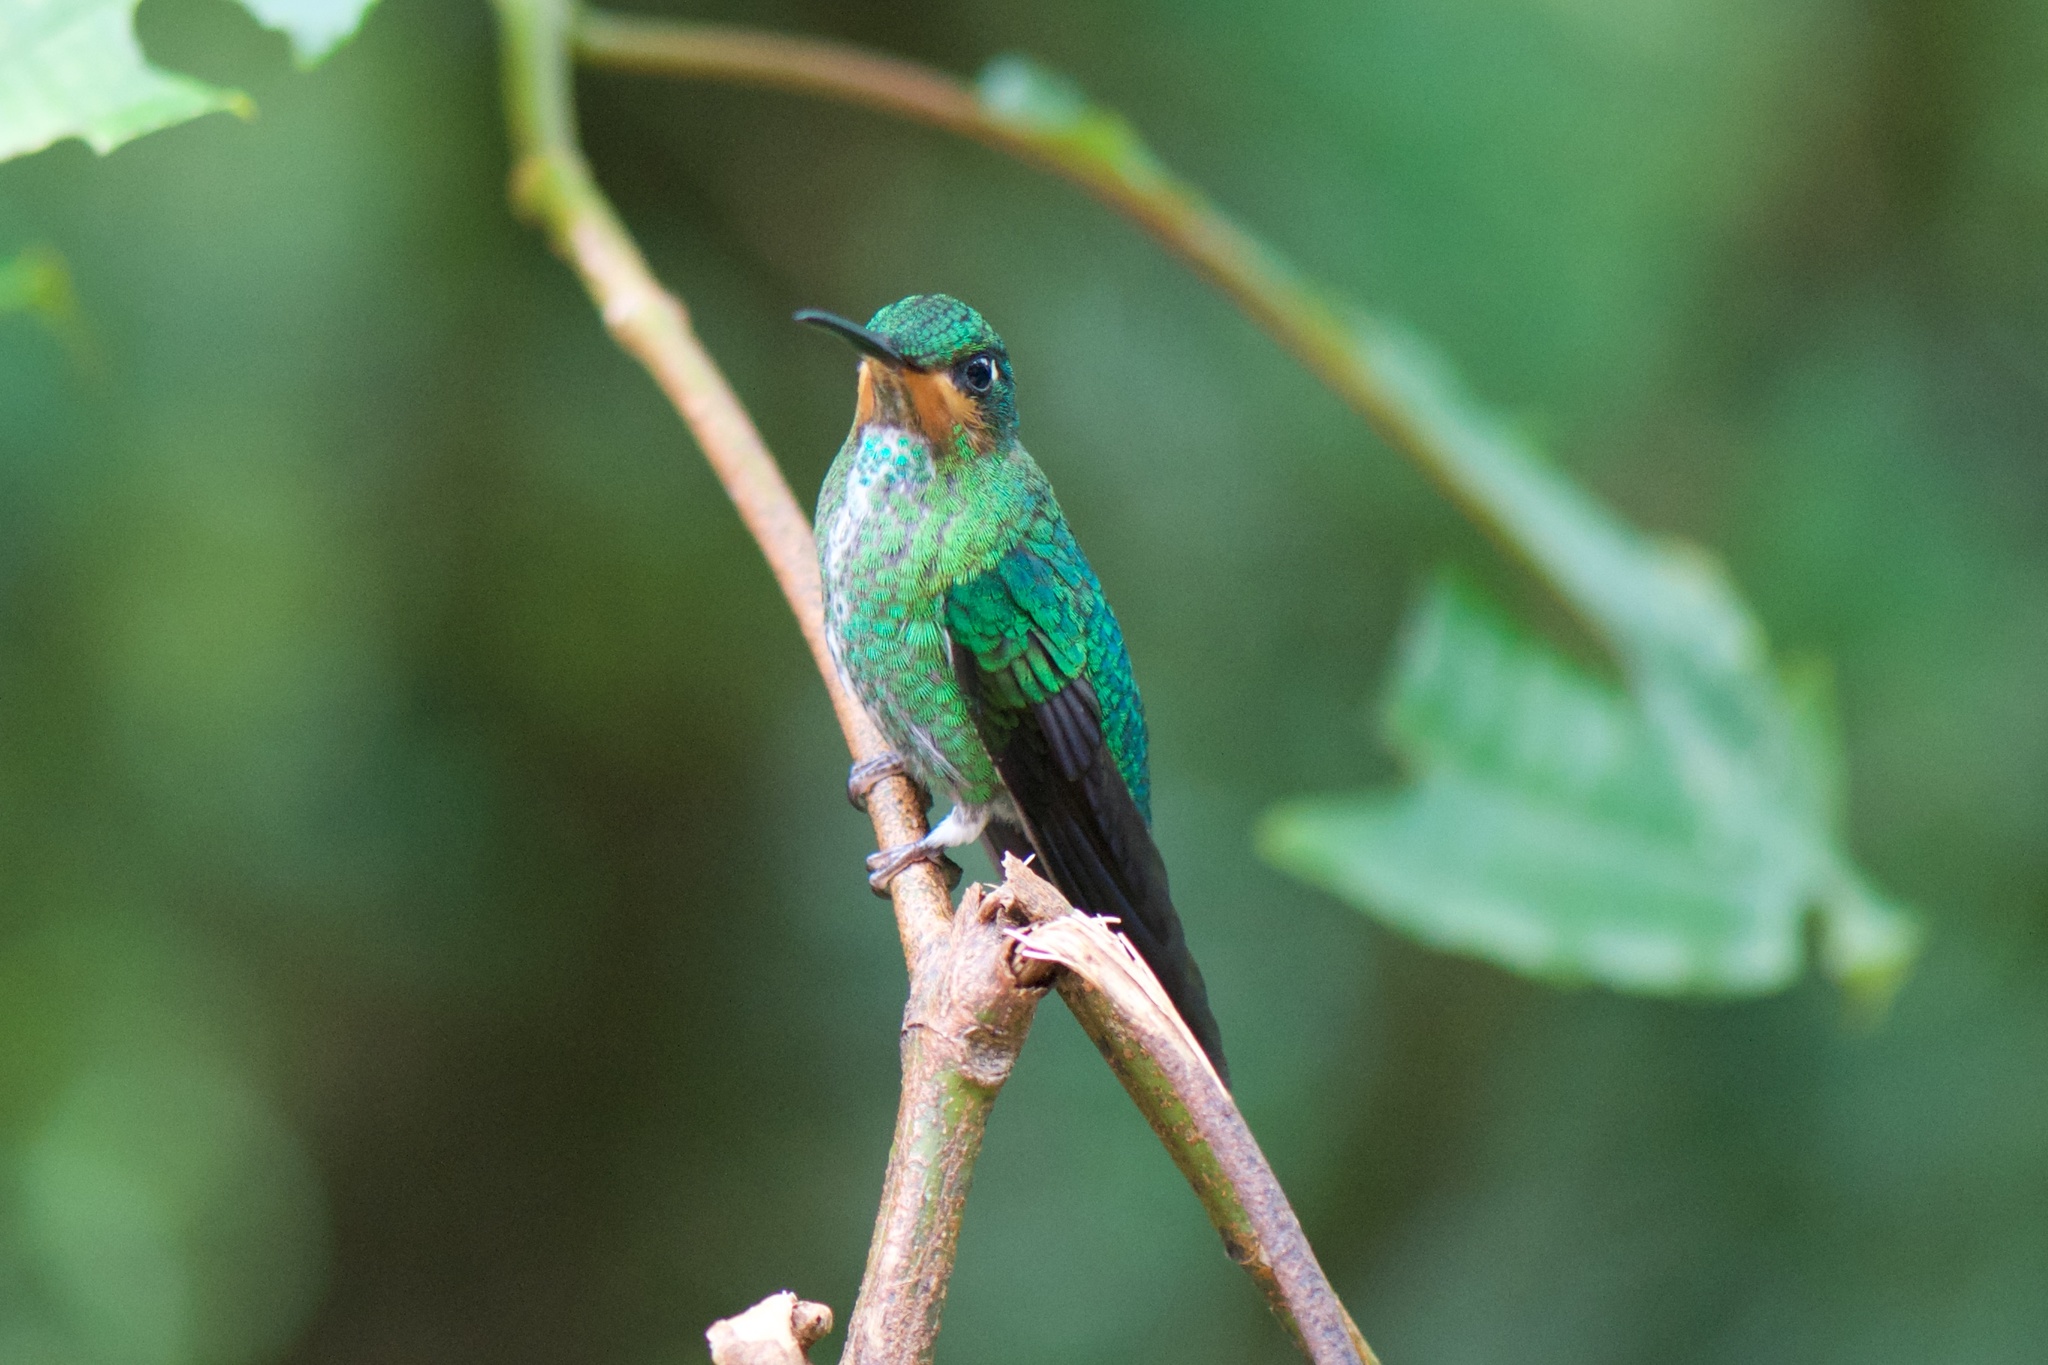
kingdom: Animalia
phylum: Chordata
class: Aves
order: Apodiformes
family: Trochilidae
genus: Heliodoxa
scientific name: Heliodoxa jacula
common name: Green-crowned brilliant
